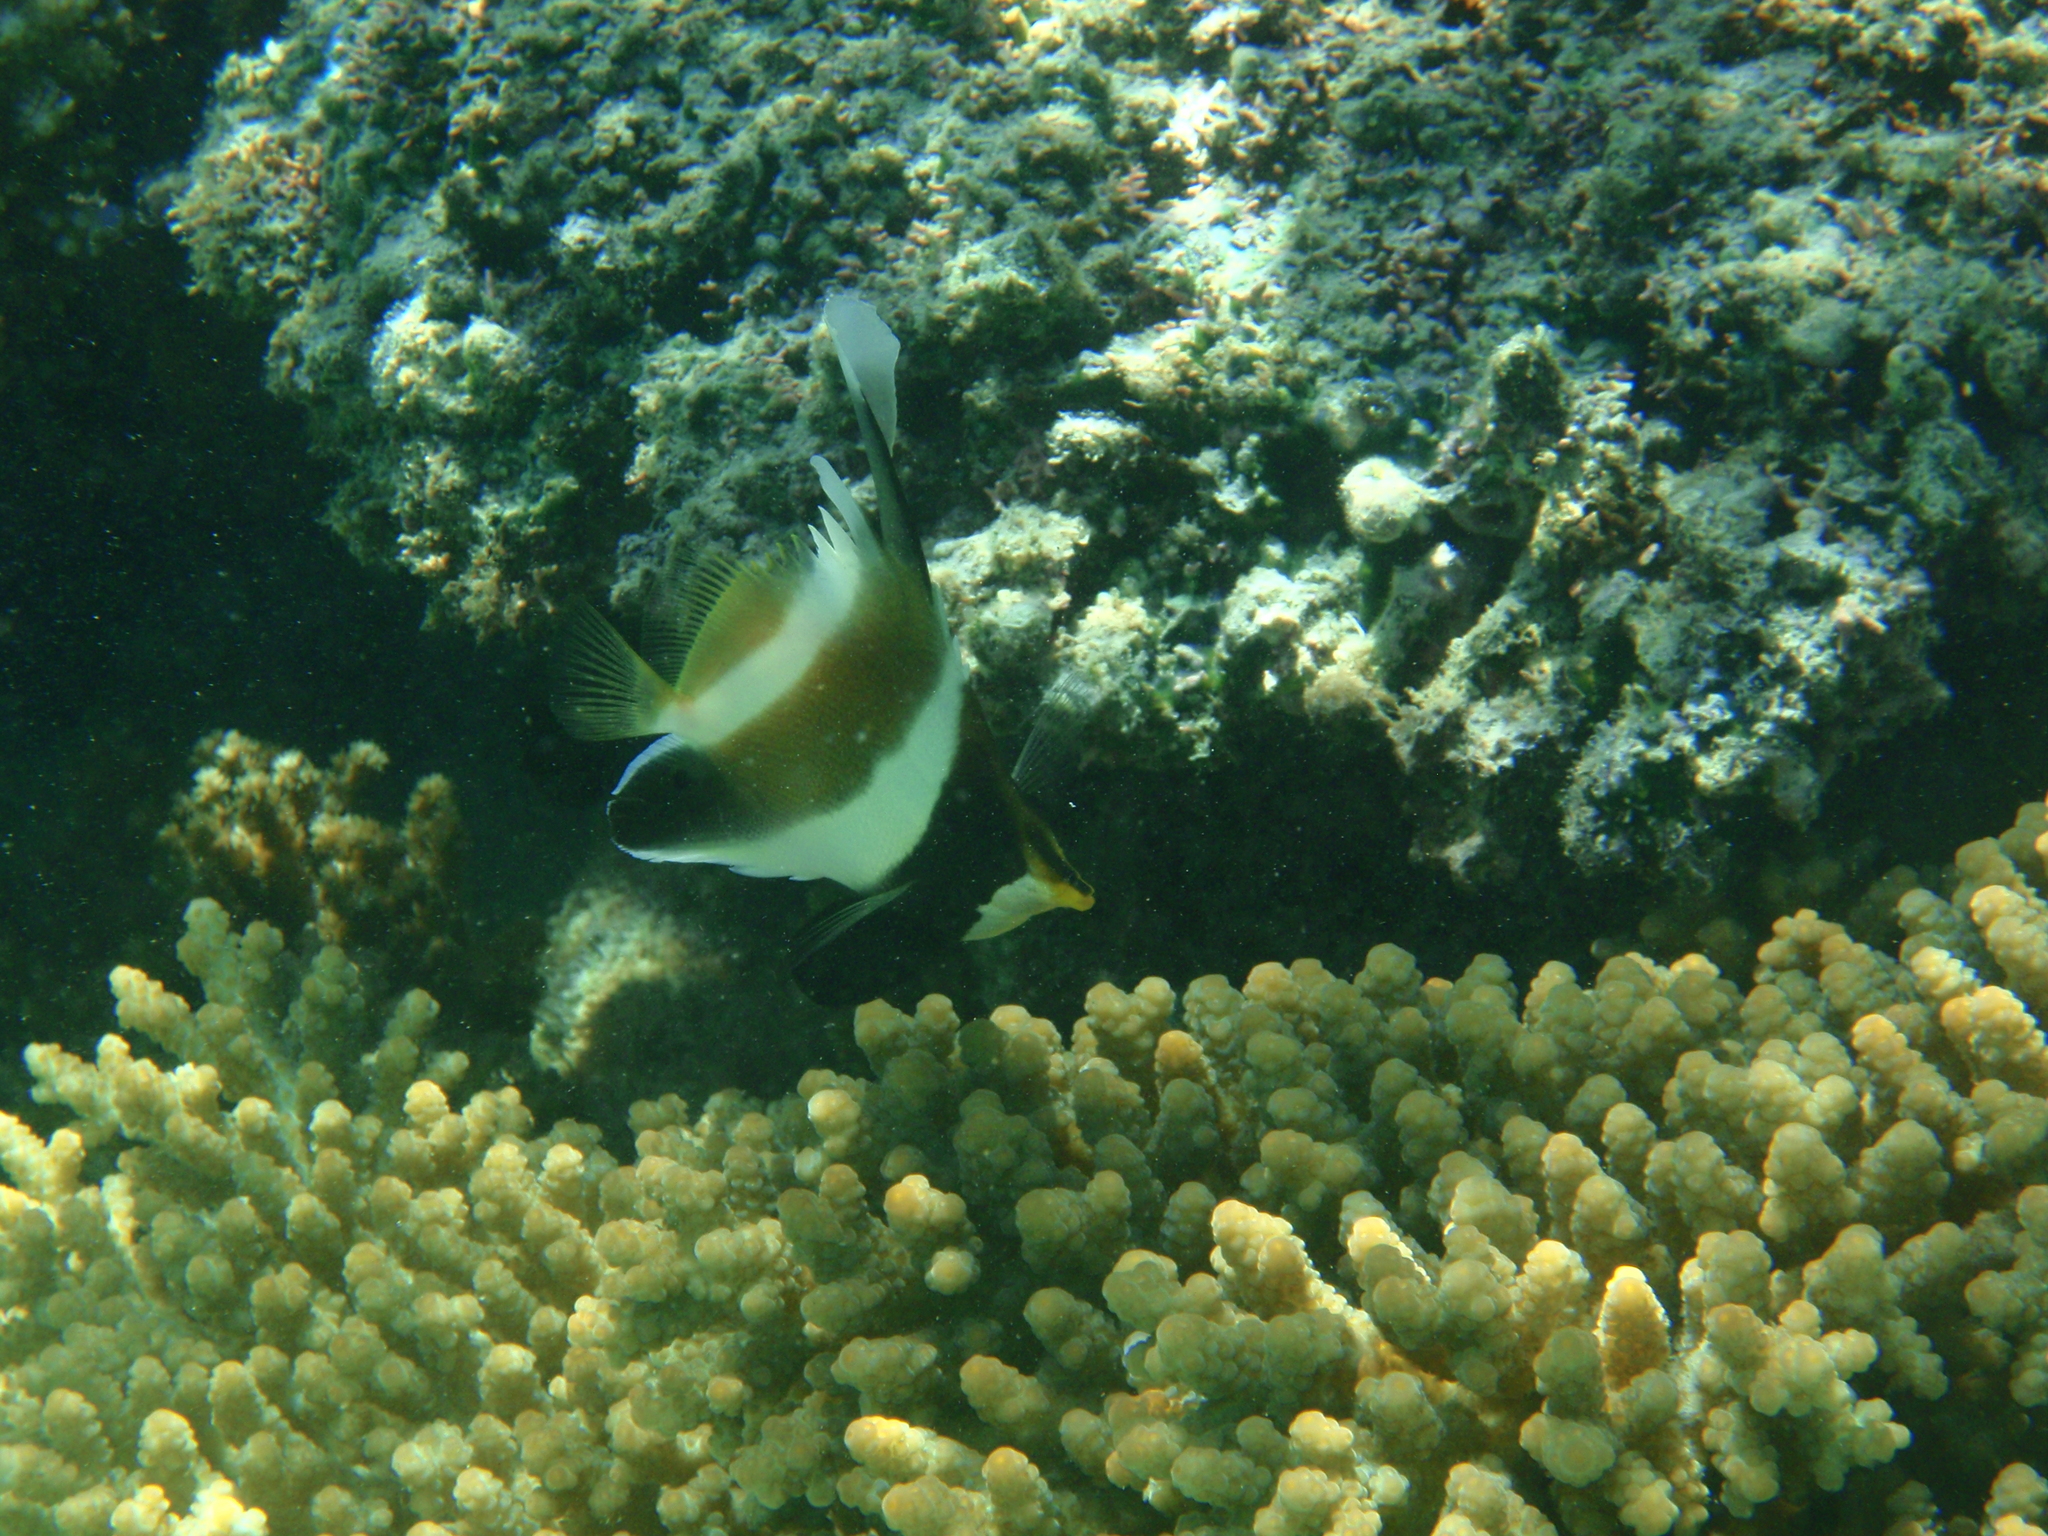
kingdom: Animalia
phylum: Chordata
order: Perciformes
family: Chaetodontidae
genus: Heniochus
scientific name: Heniochus chrysostomus
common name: Horned bannerfish
